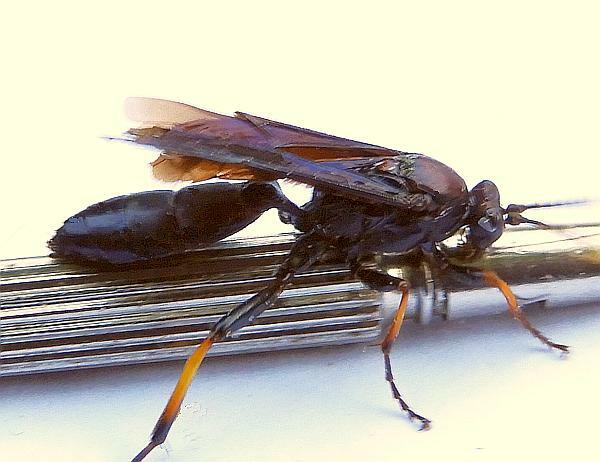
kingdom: Animalia
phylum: Arthropoda
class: Insecta
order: Hymenoptera
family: Ichneumonidae
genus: Ichneumon
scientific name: Ichneumon centrator
